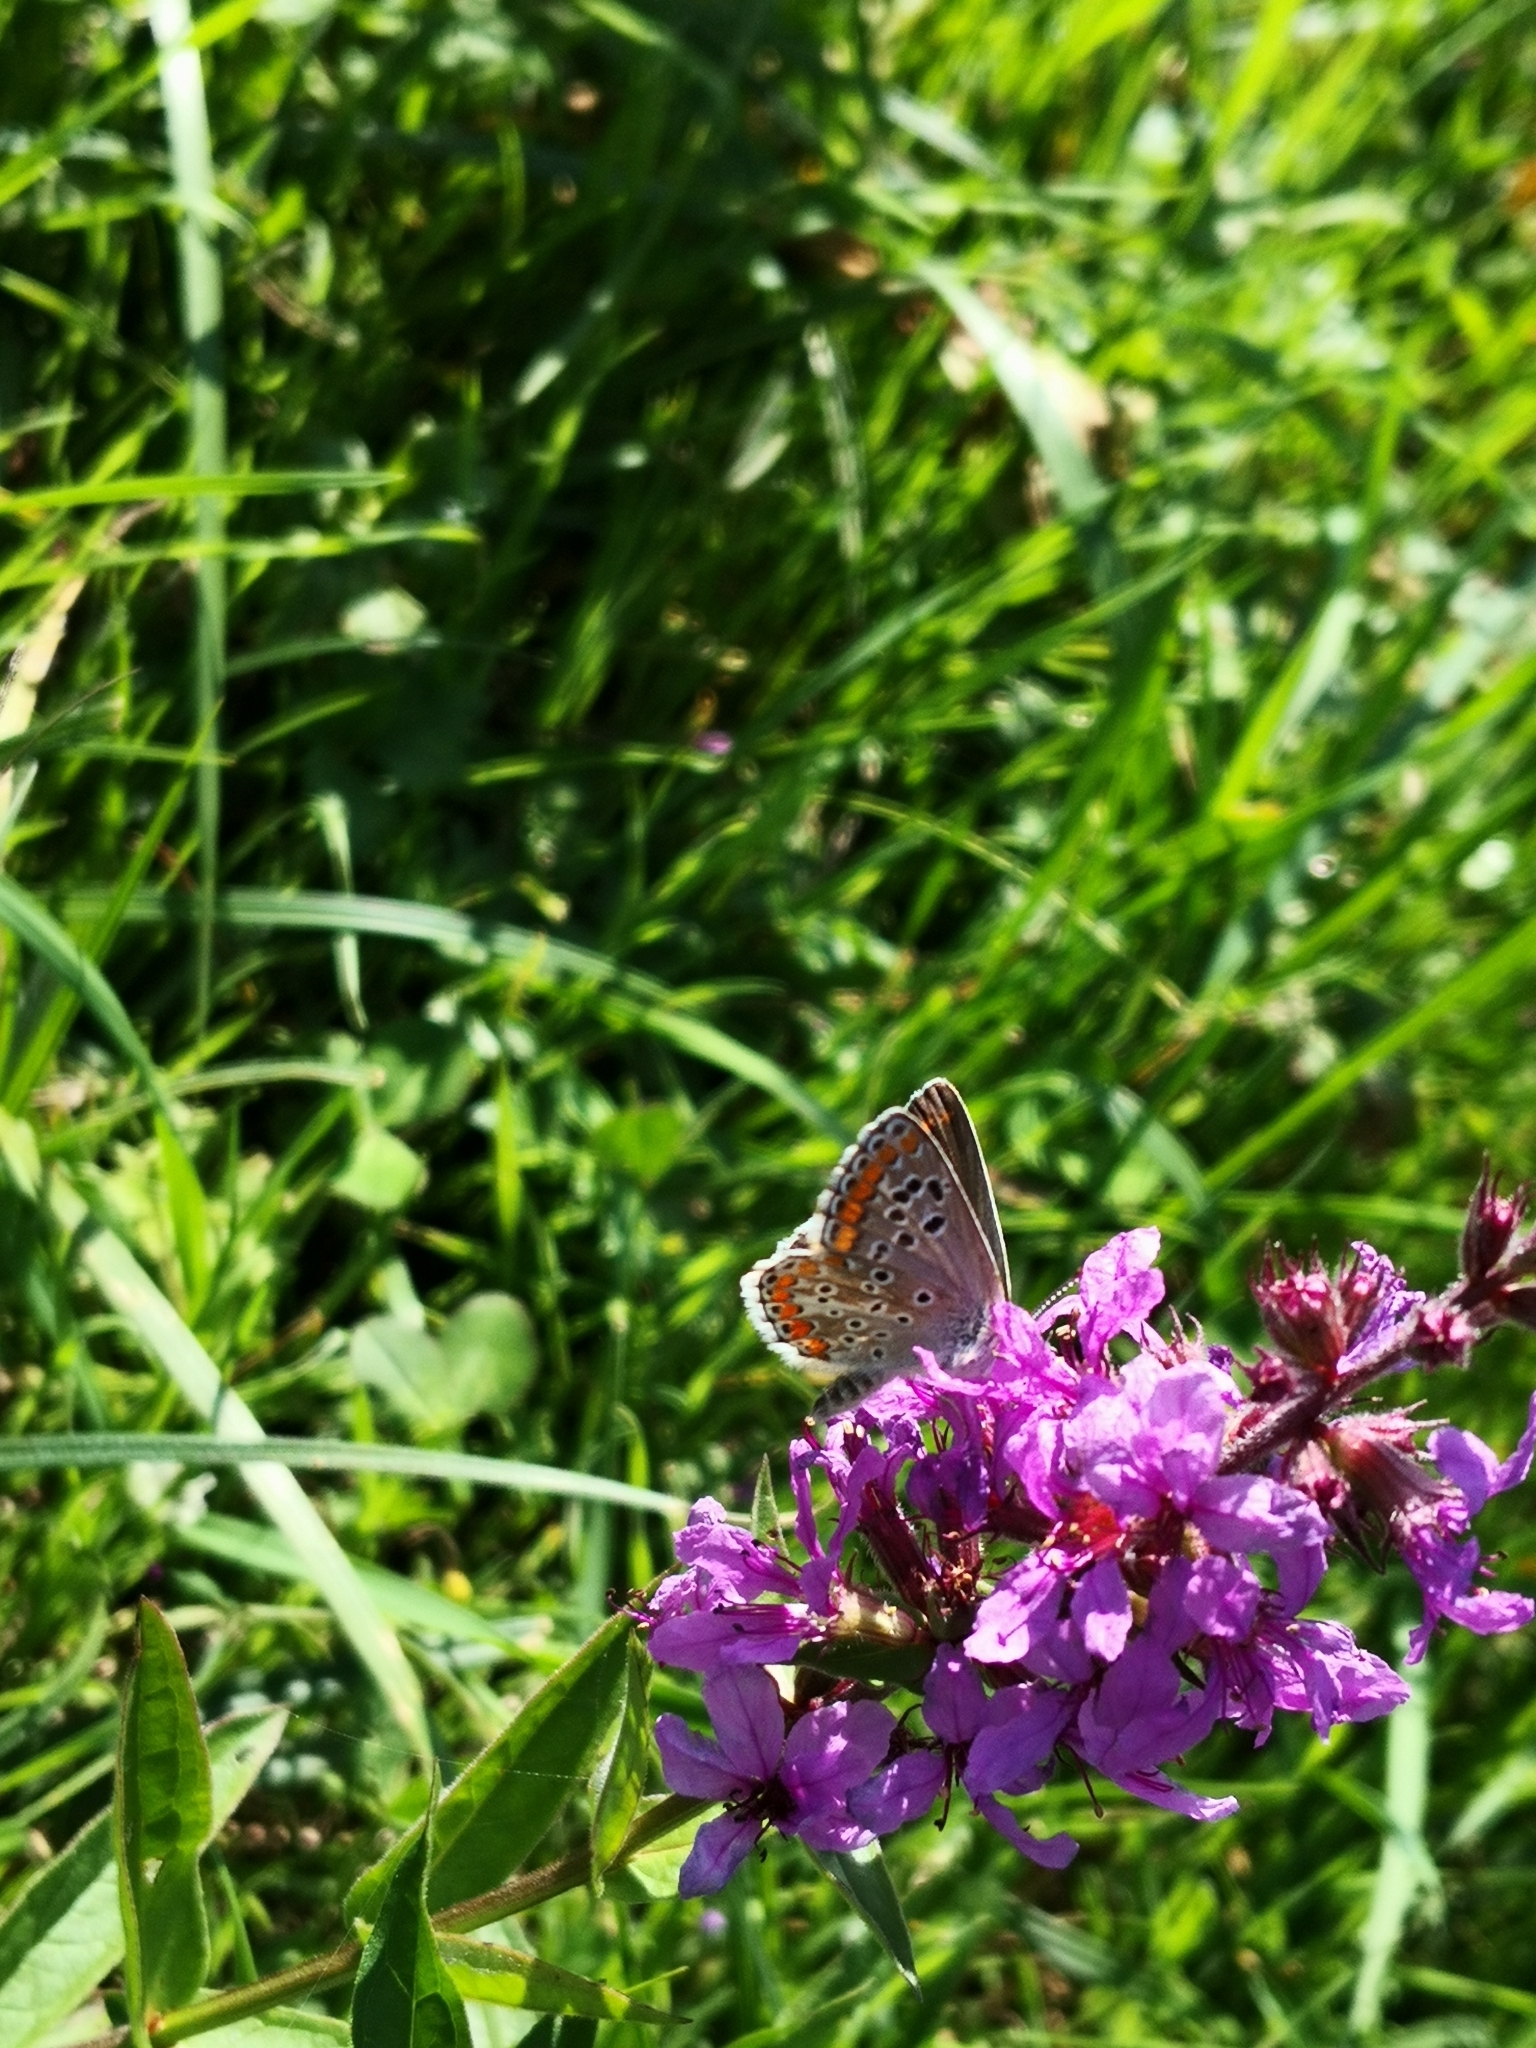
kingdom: Animalia
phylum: Arthropoda
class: Insecta
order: Lepidoptera
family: Lycaenidae
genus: Aricia
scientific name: Aricia agestis
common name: Brown argus
